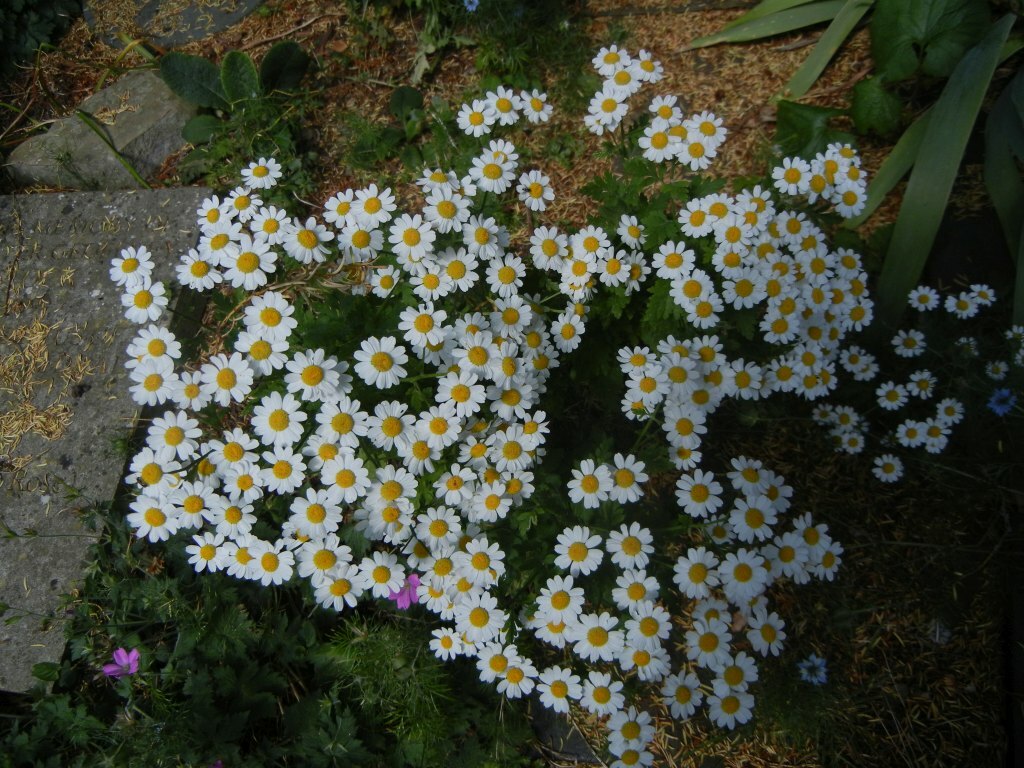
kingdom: Plantae
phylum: Tracheophyta
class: Magnoliopsida
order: Asterales
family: Asteraceae
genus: Tanacetum
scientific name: Tanacetum parthenium
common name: Feverfew
